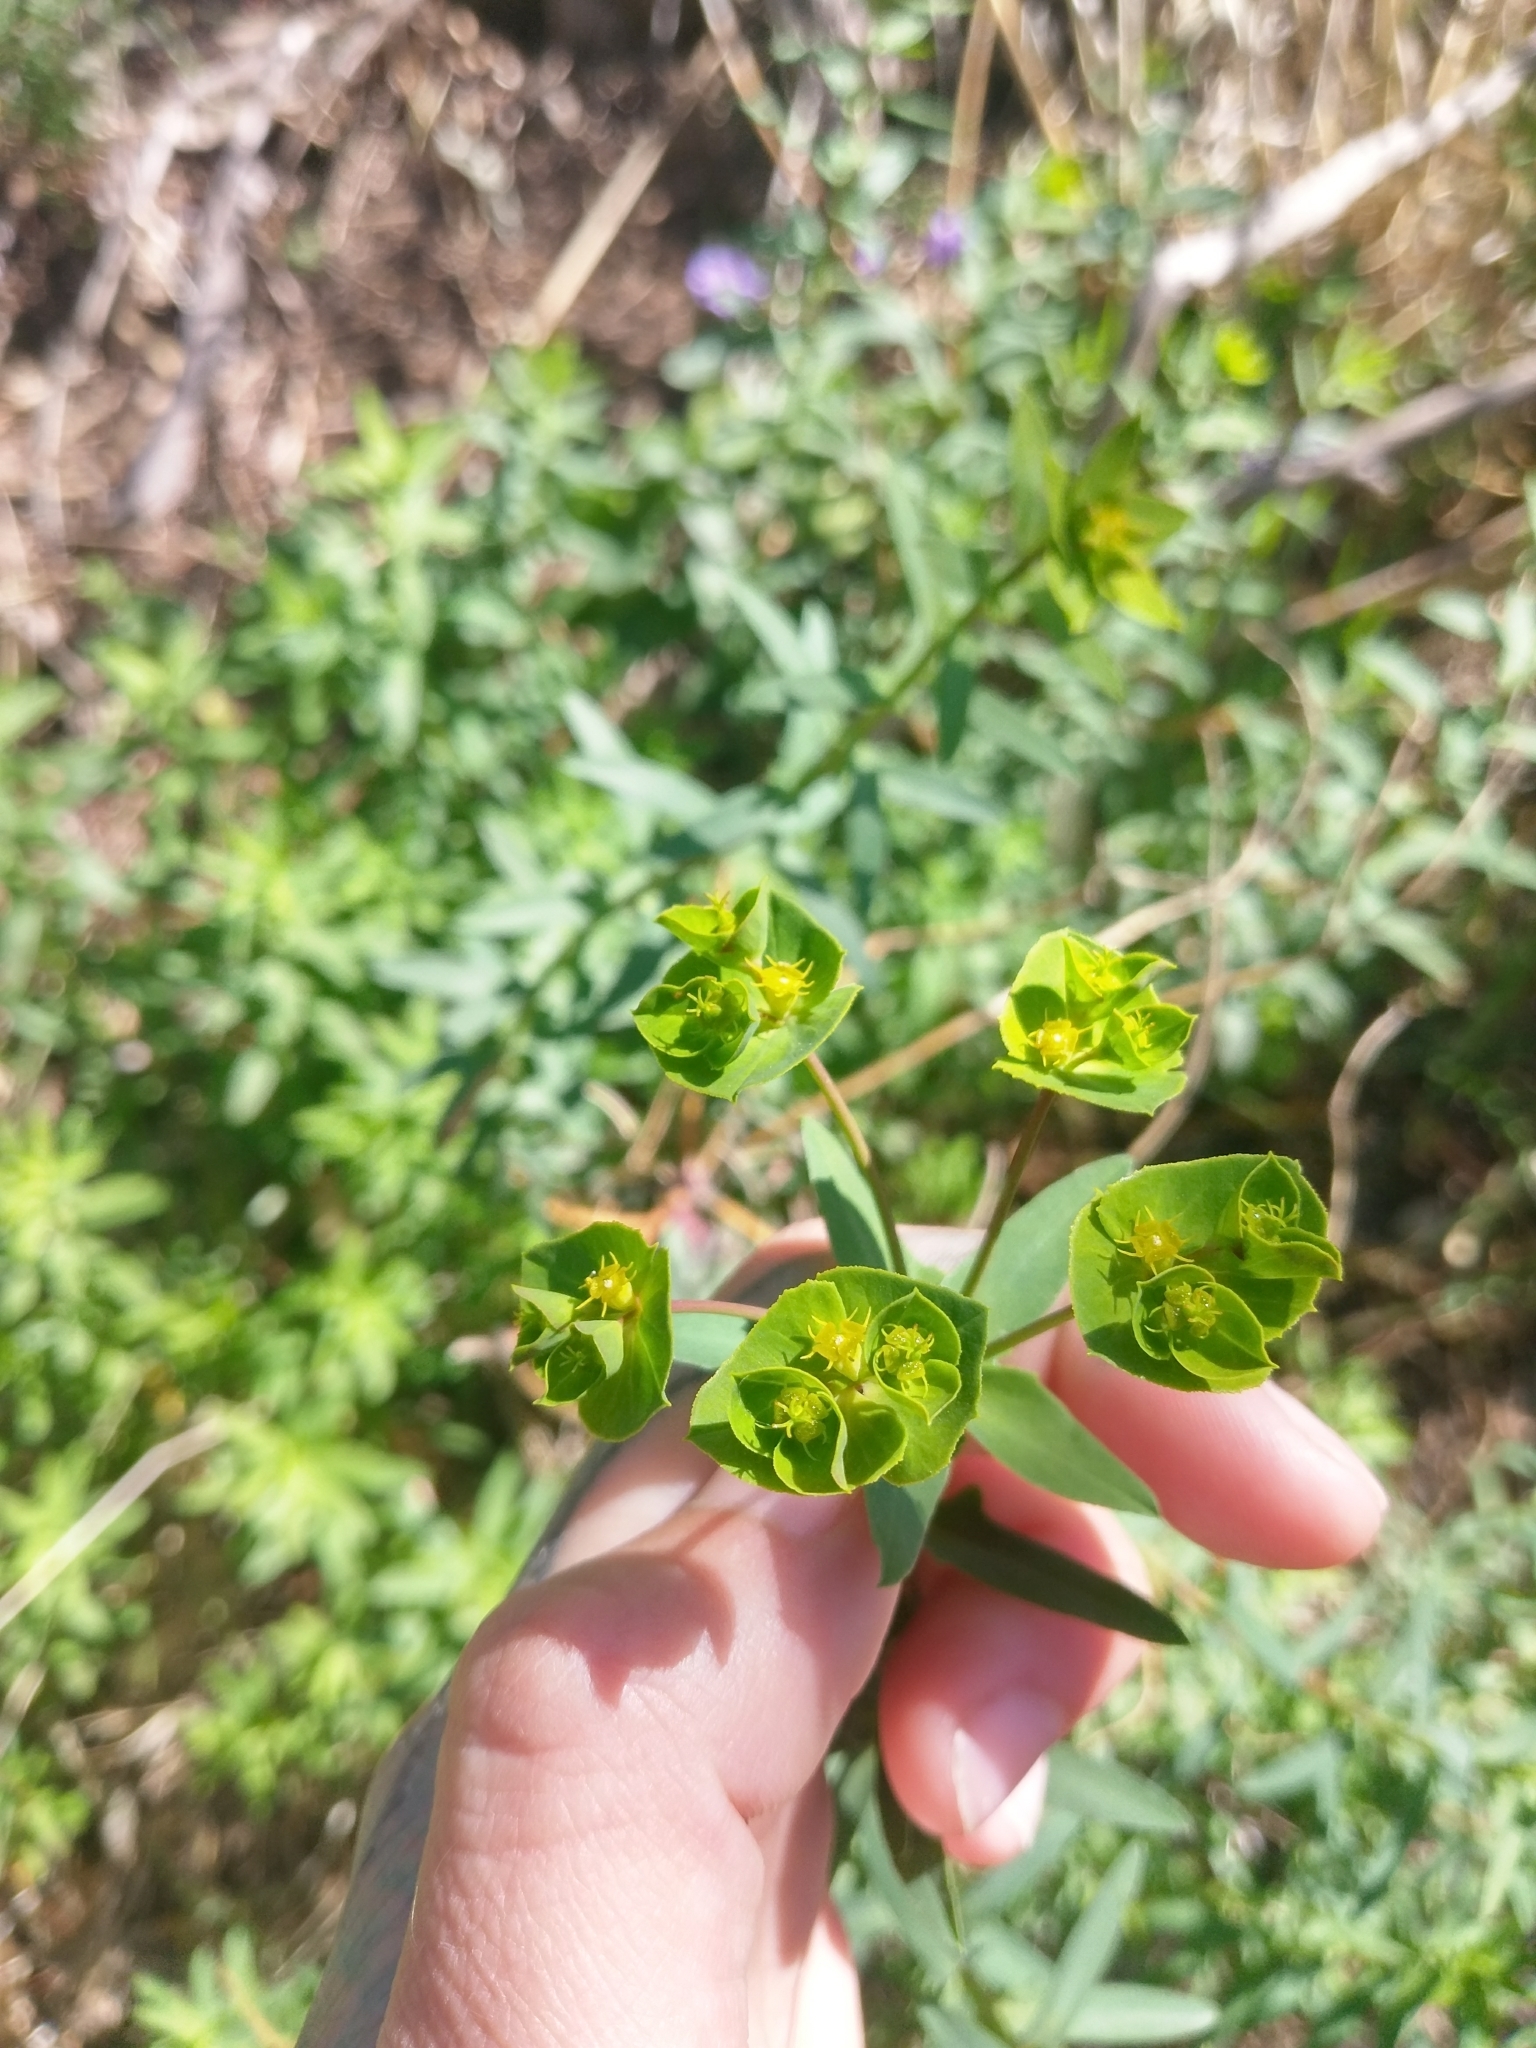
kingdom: Plantae
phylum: Tracheophyta
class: Magnoliopsida
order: Malpighiales
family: Euphorbiaceae
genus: Euphorbia
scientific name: Euphorbia terracina
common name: Geraldton carnation weed
